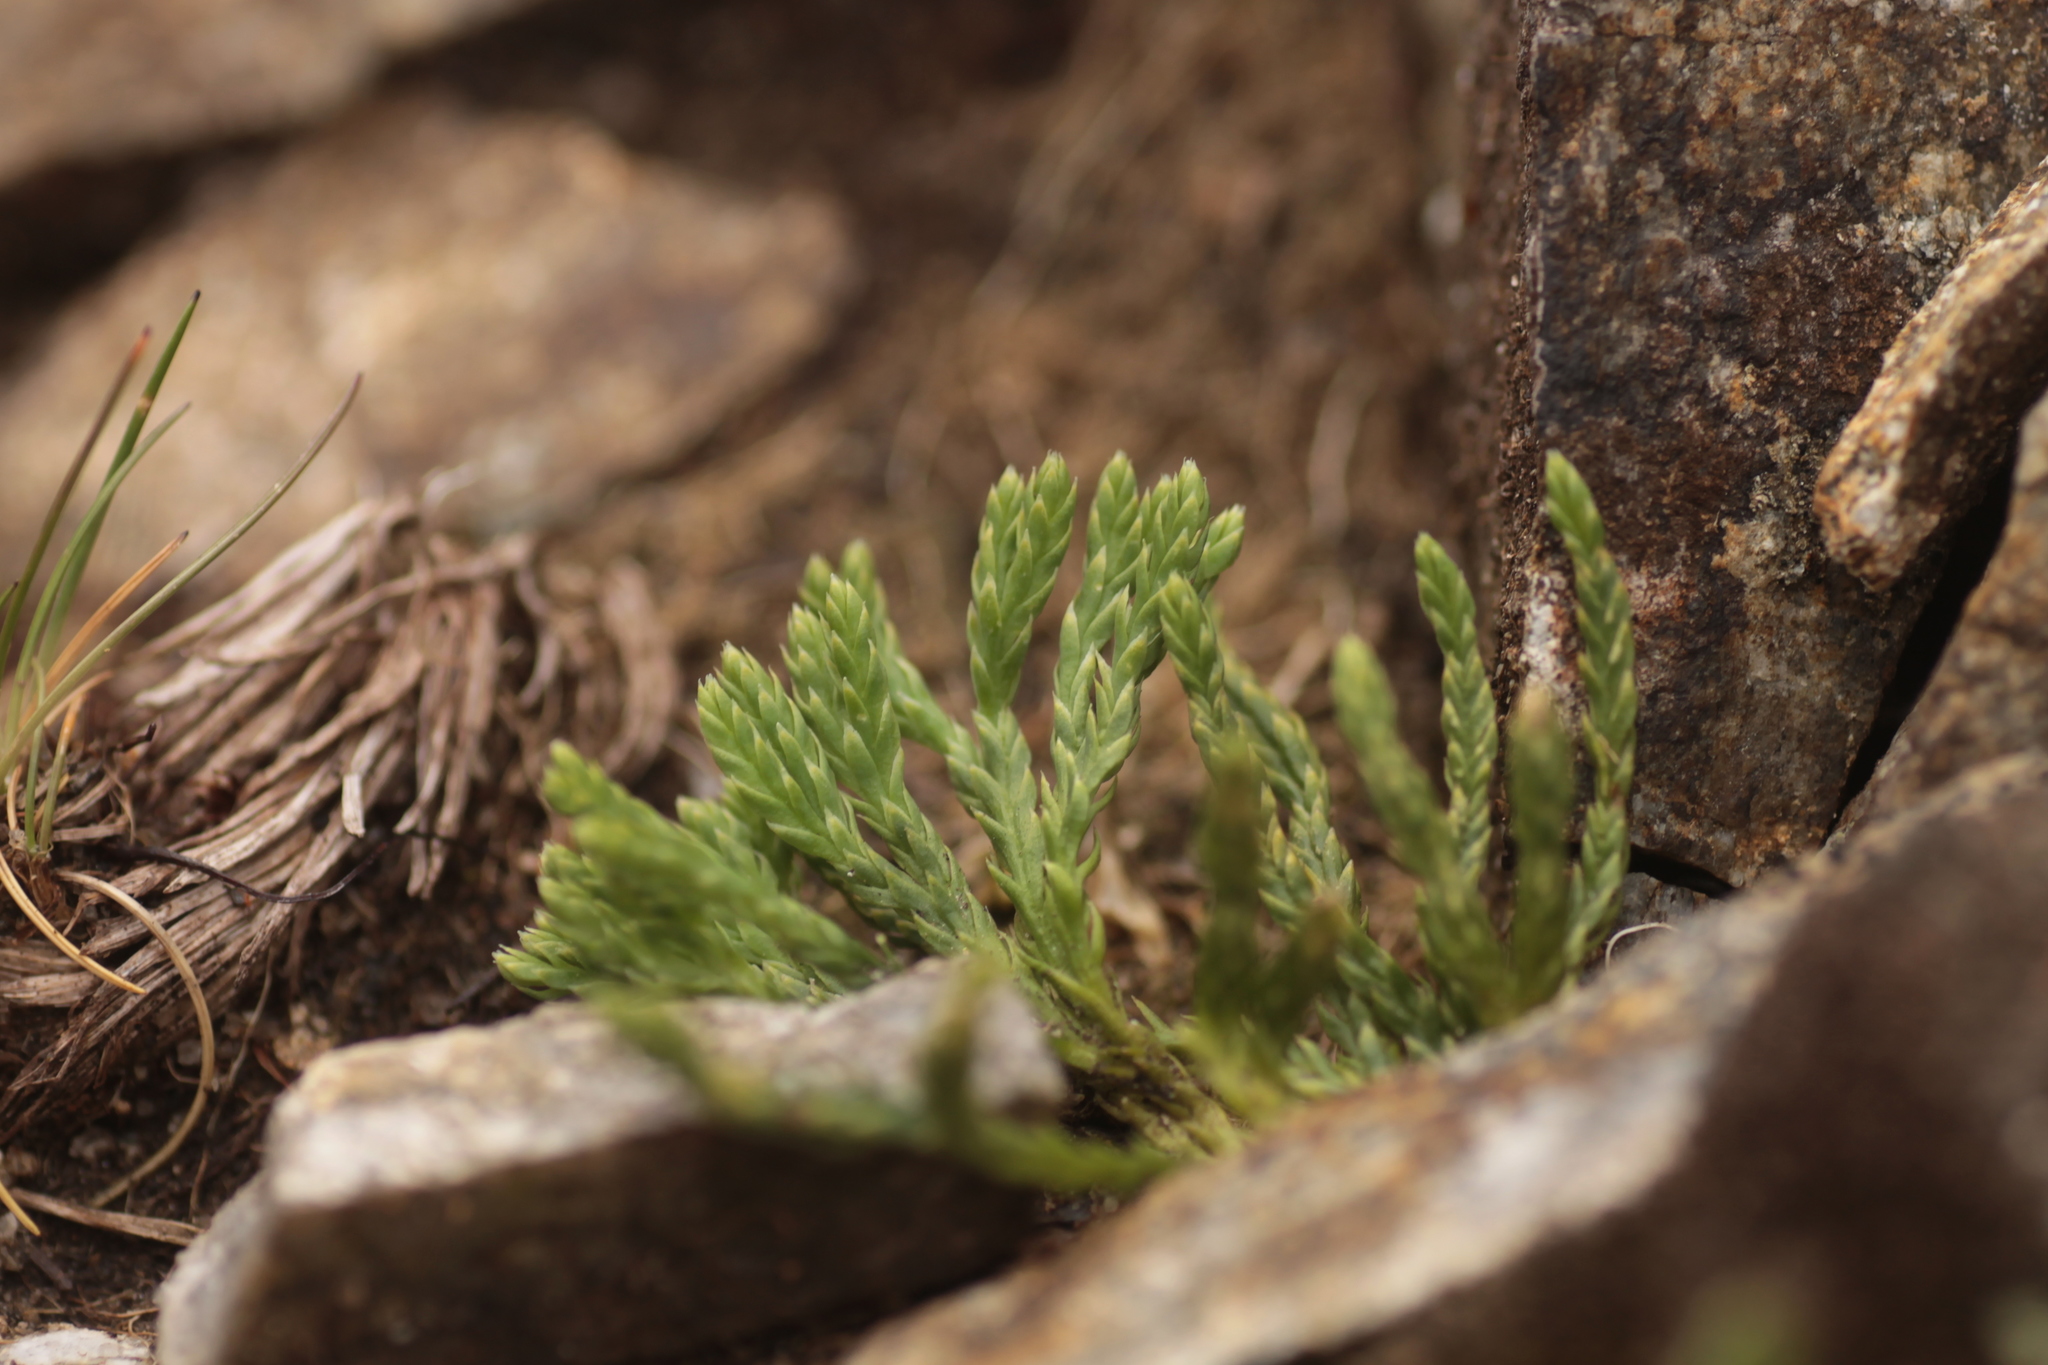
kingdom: Plantae
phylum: Tracheophyta
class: Lycopodiopsida
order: Lycopodiales
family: Lycopodiaceae
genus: Diphasiastrum
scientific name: Diphasiastrum alpinum
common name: Alpine clubmoss
